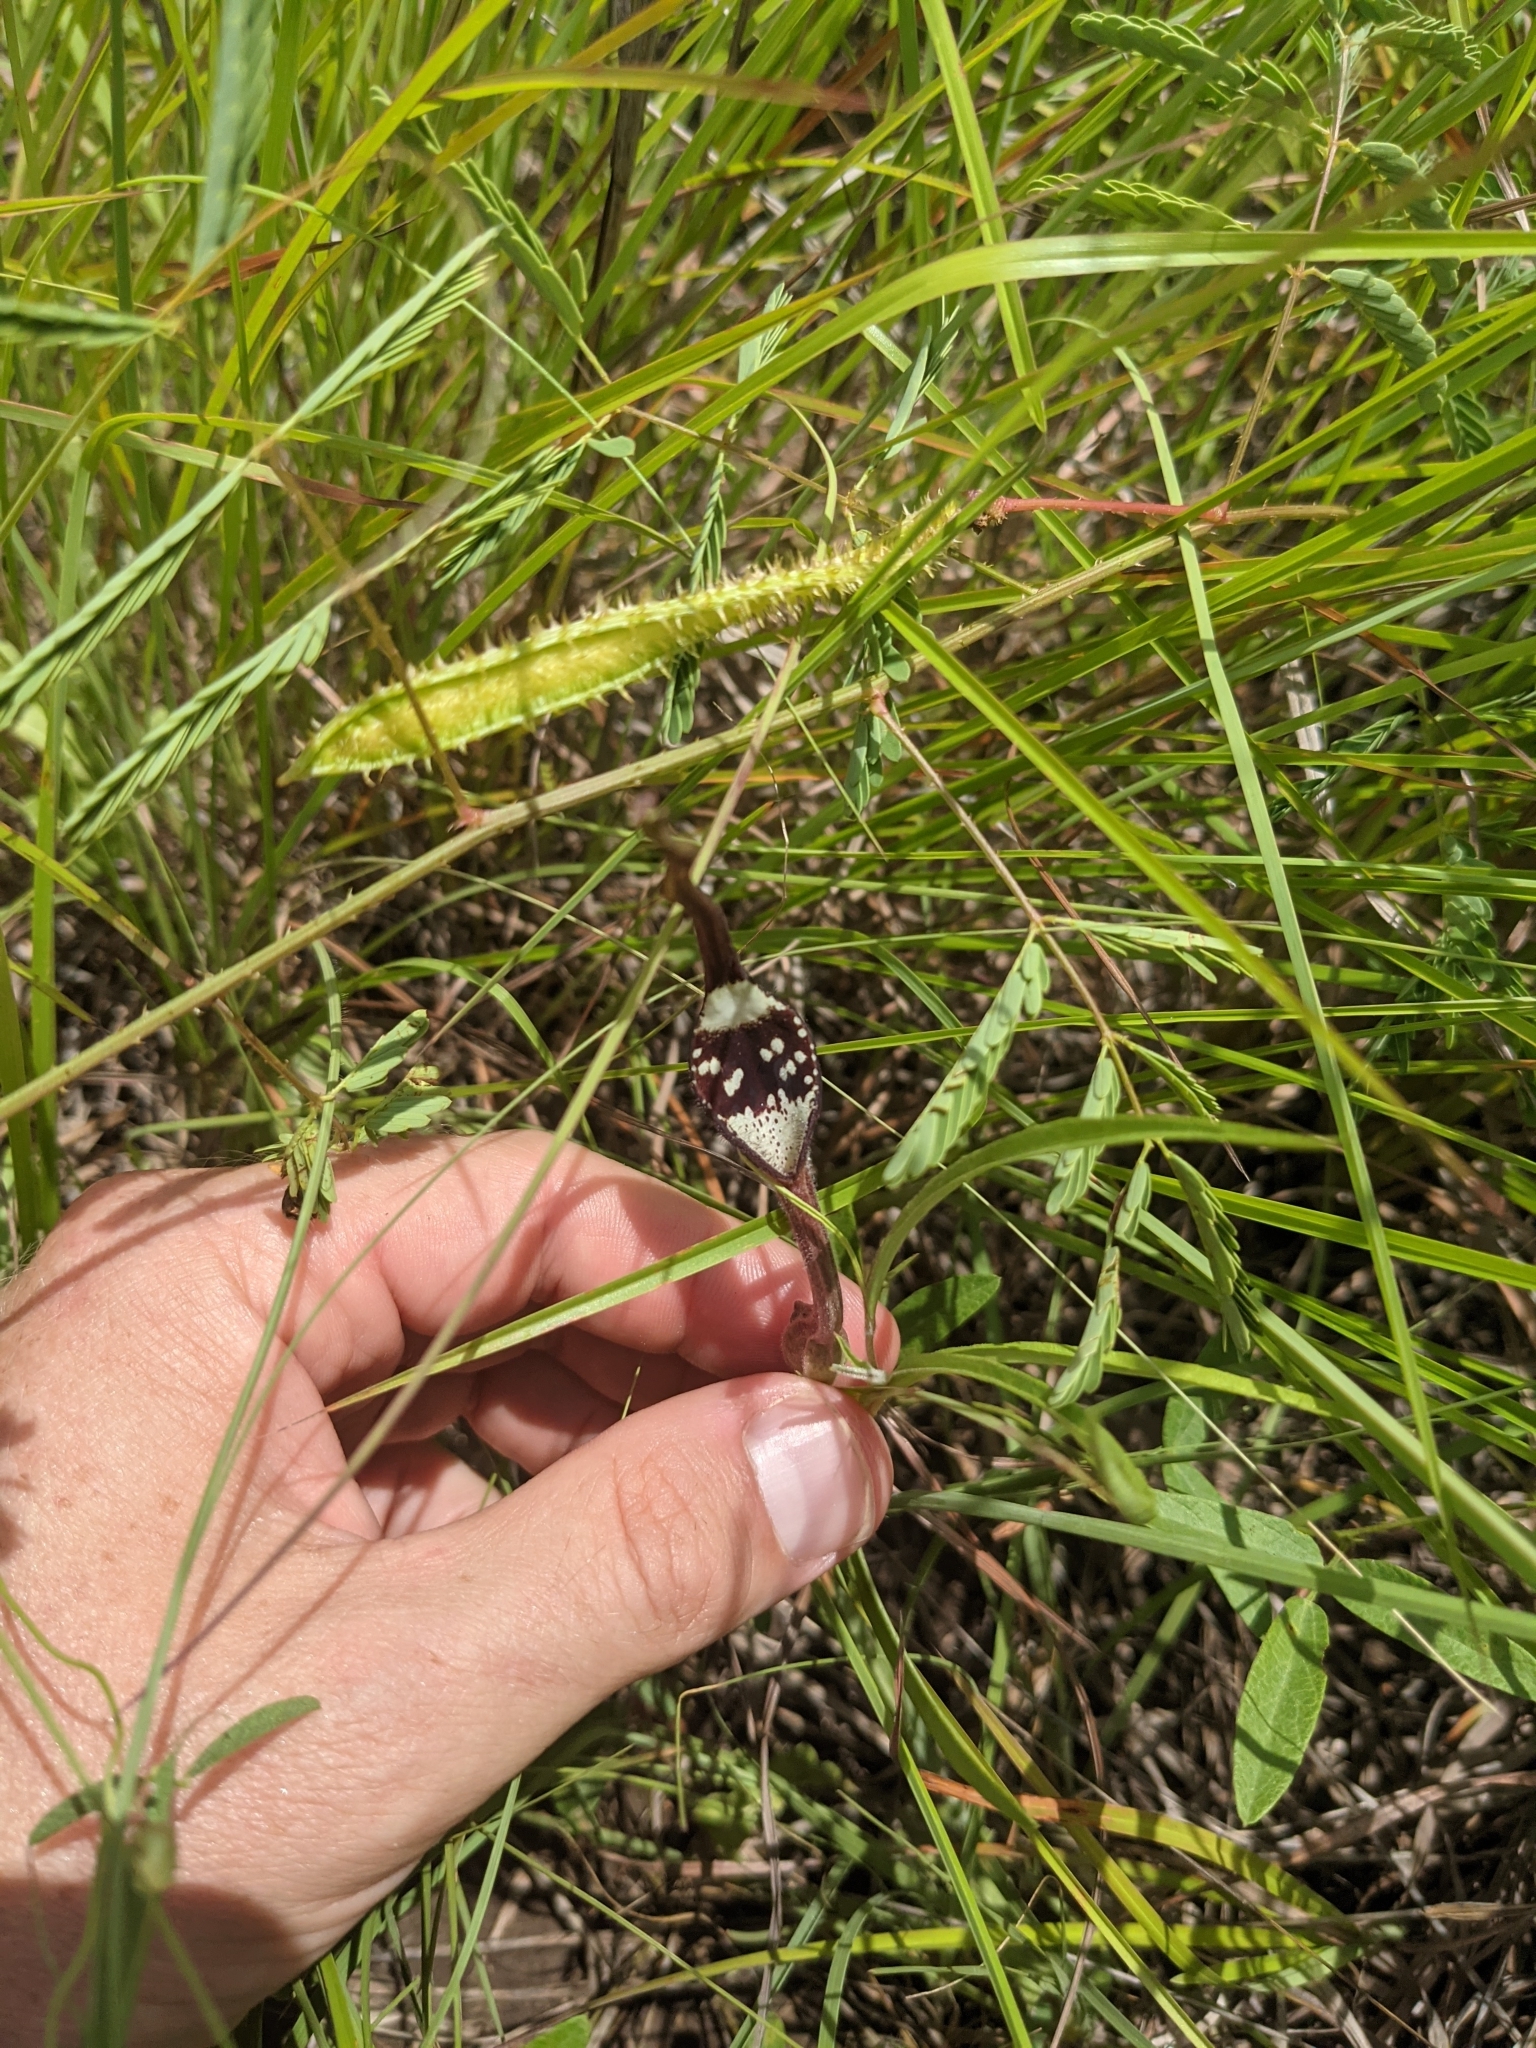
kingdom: Plantae
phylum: Tracheophyta
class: Magnoliopsida
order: Piperales
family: Aristolochiaceae
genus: Aristolochia
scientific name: Aristolochia erecta
